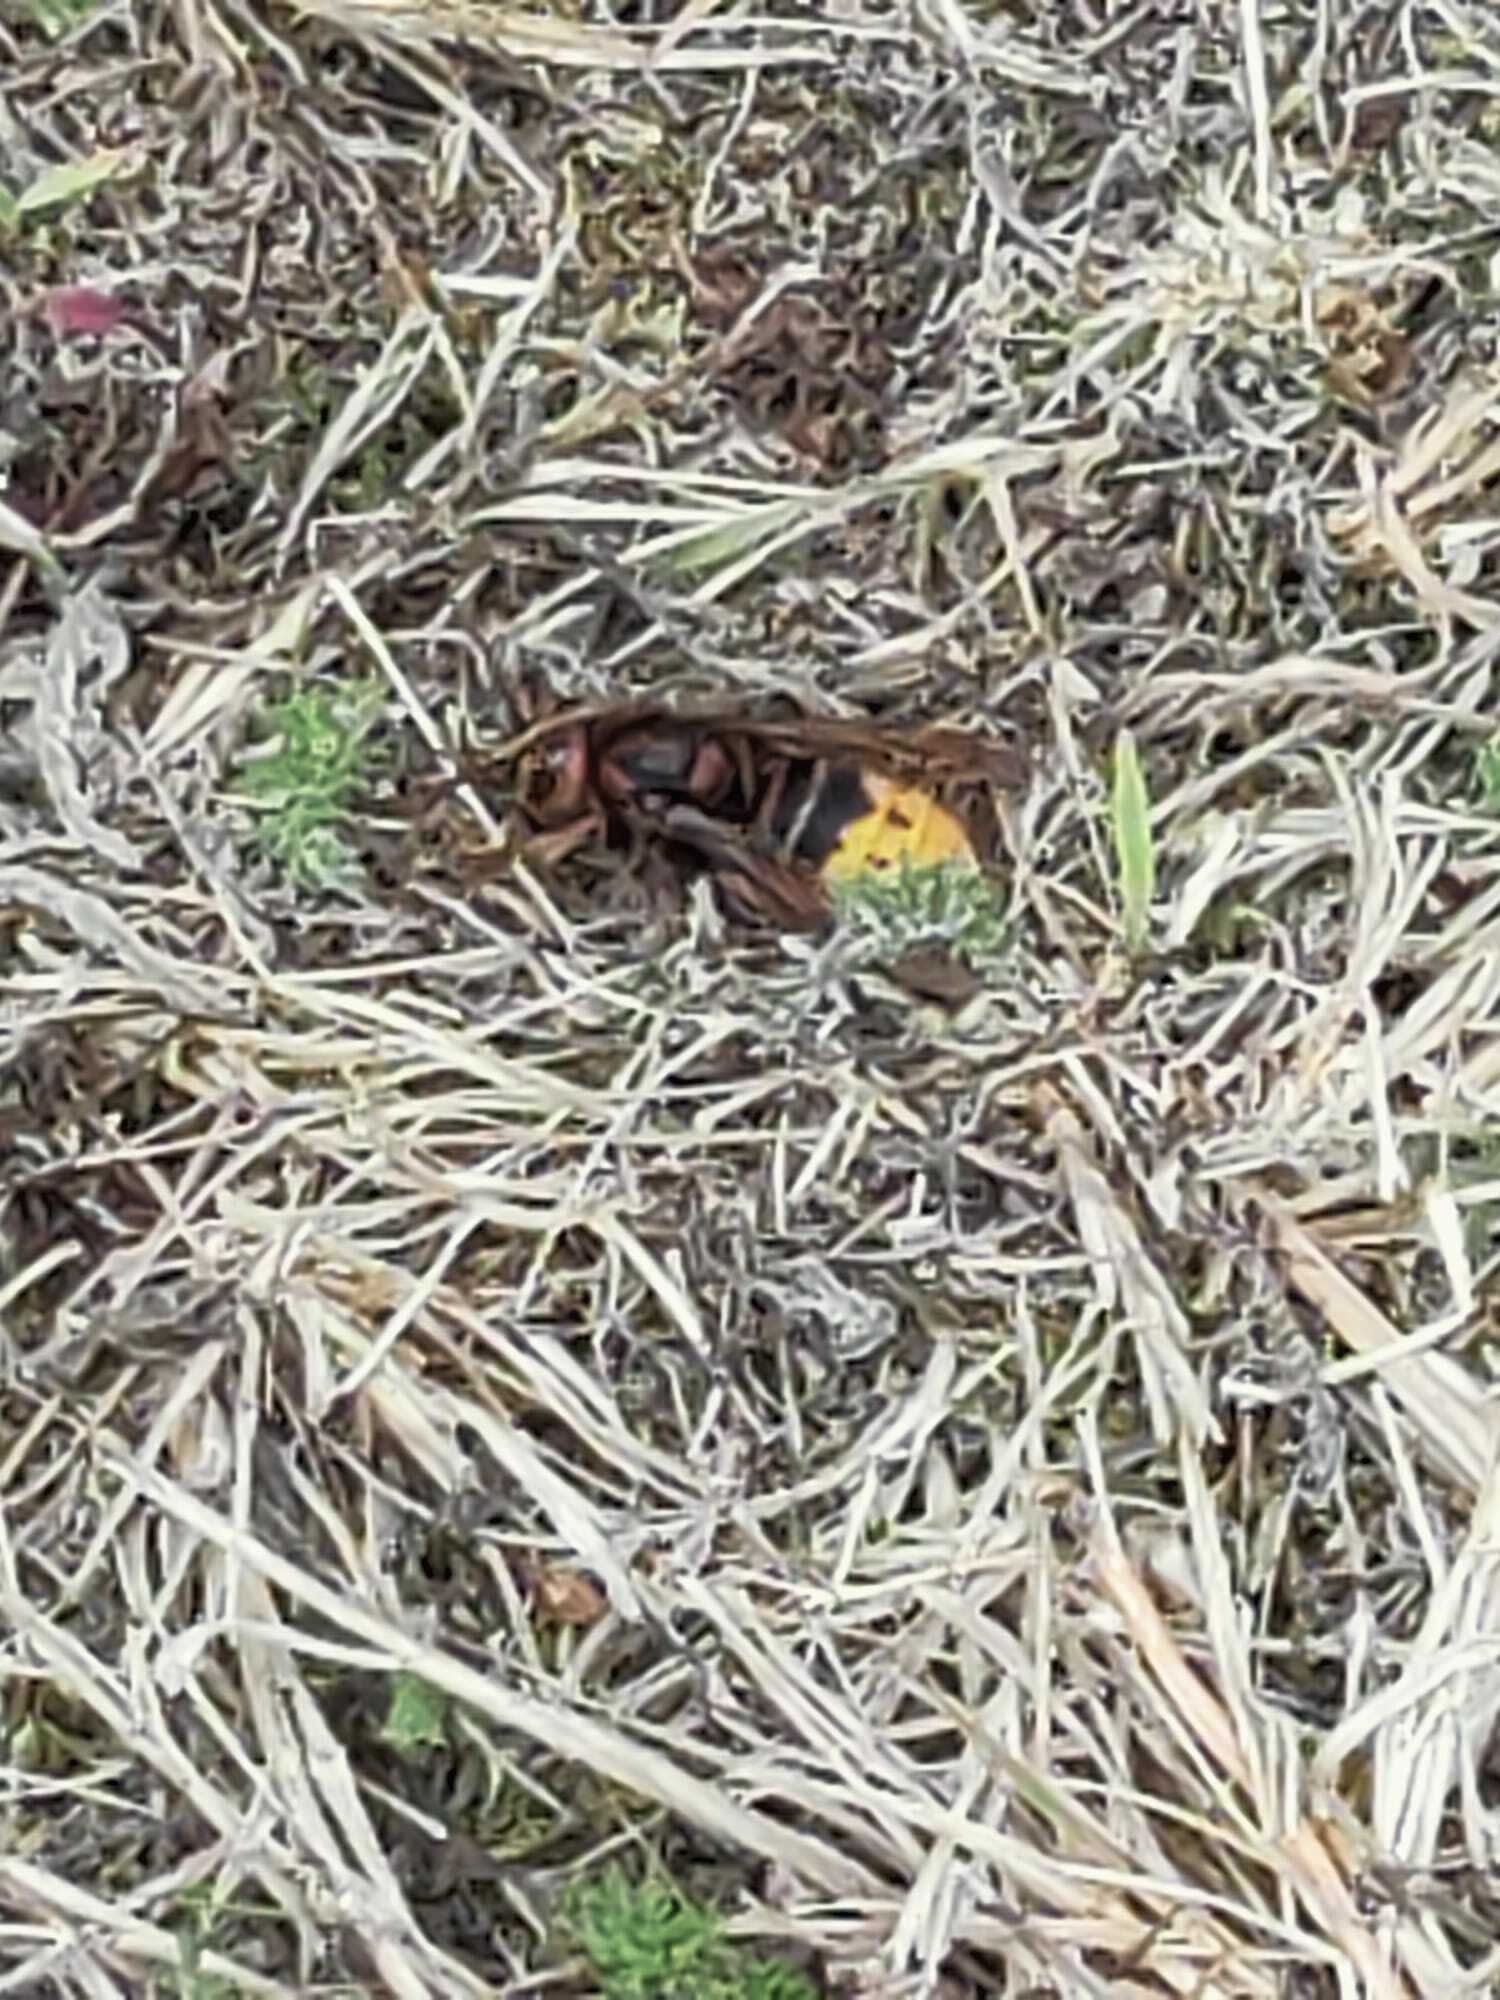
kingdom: Animalia
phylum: Arthropoda
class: Insecta
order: Hymenoptera
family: Vespidae
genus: Vespa
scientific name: Vespa crabro
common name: Hornet
